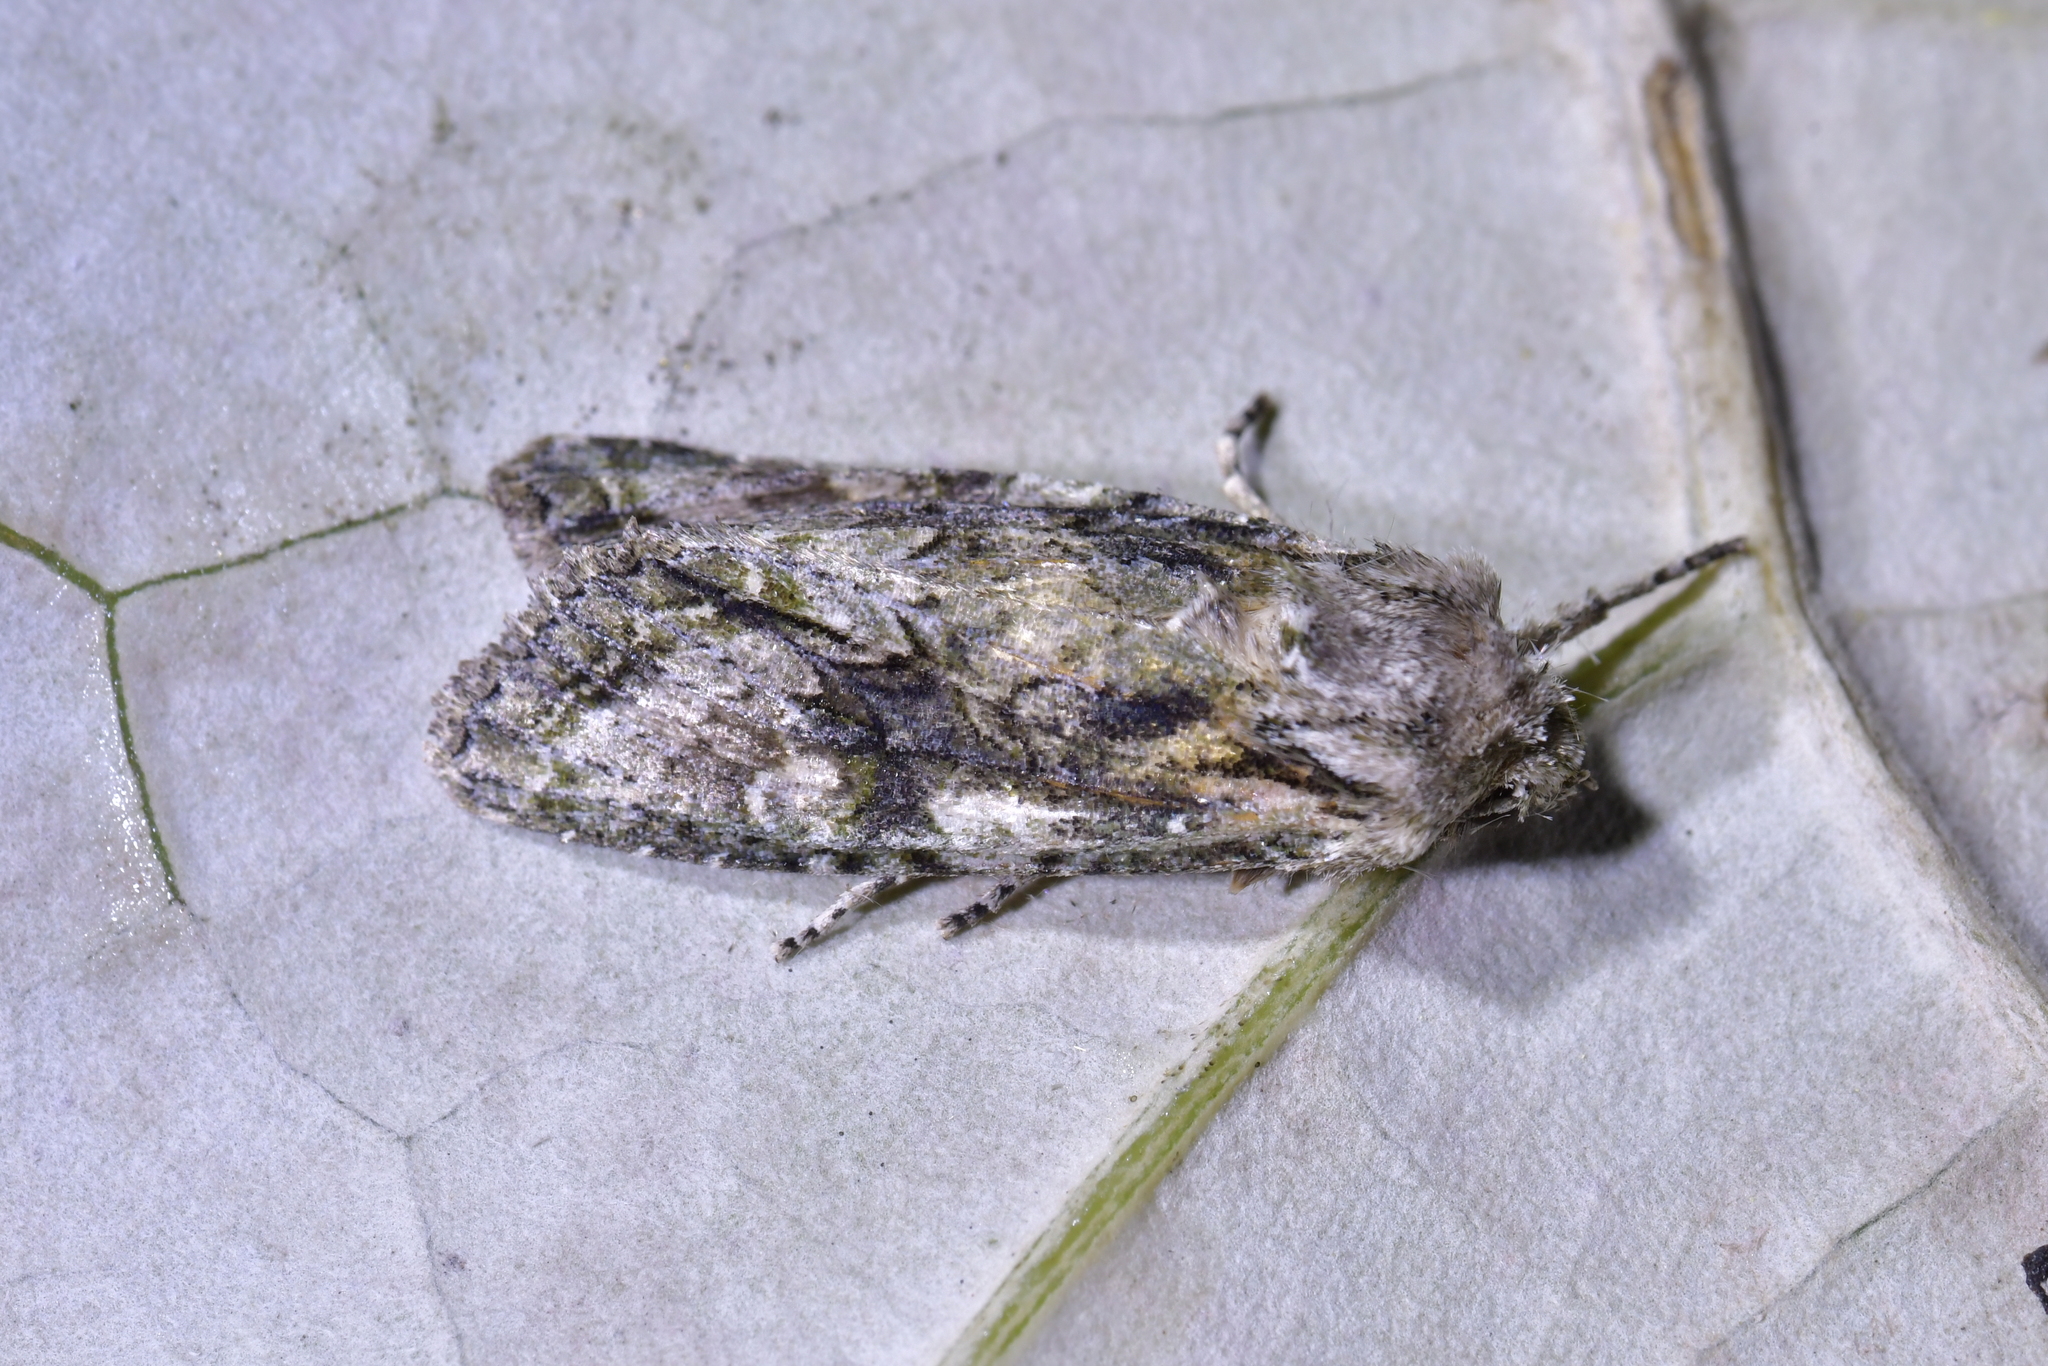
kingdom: Animalia
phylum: Arthropoda
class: Insecta
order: Lepidoptera
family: Noctuidae
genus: Ichneutica
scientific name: Ichneutica mutans
